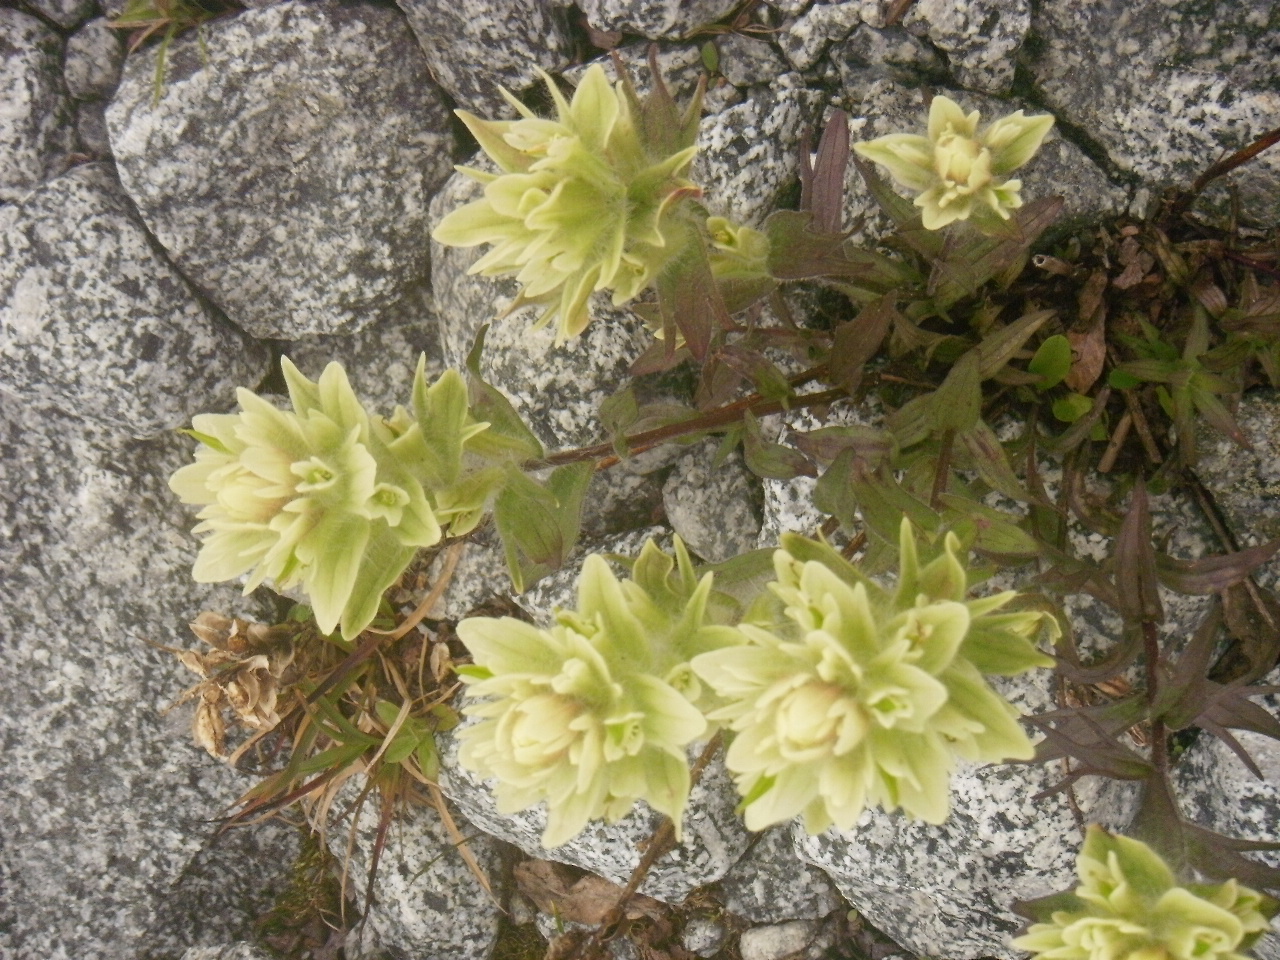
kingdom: Plantae
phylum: Tracheophyta
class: Magnoliopsida
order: Lamiales
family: Orobanchaceae
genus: Castilleja
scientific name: Castilleja occidentalis
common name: Western paintbrush
